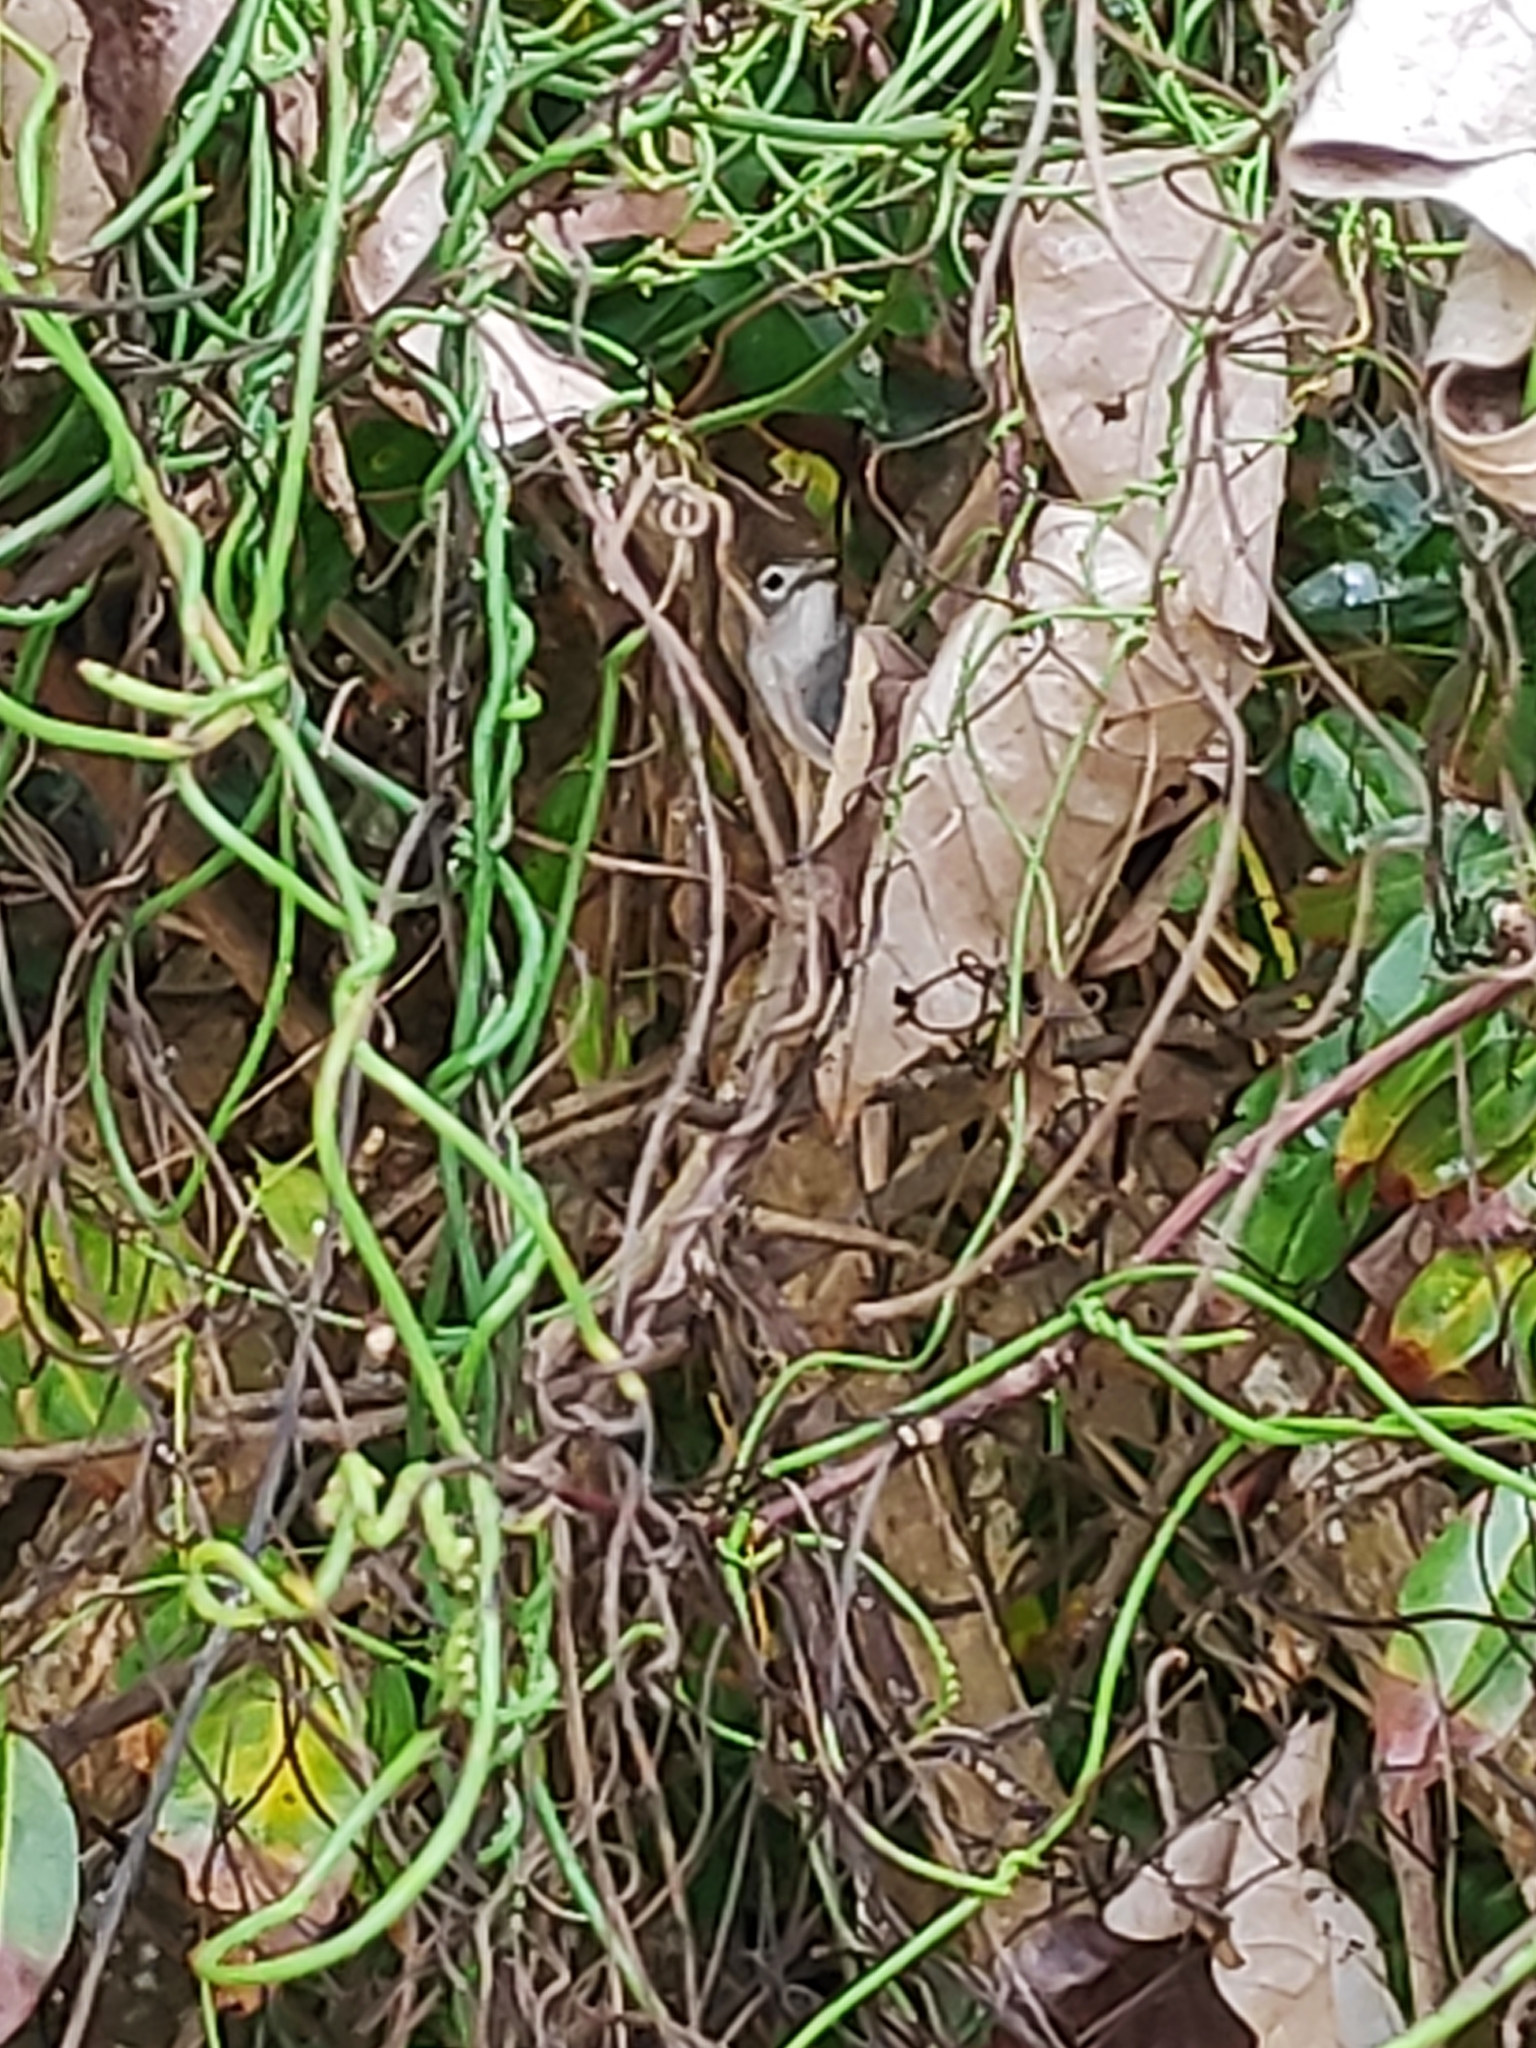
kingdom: Animalia
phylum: Chordata
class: Aves
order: Passeriformes
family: Monarchidae
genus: Mayrornis
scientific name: Mayrornis lessoni
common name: Slaty monarch
